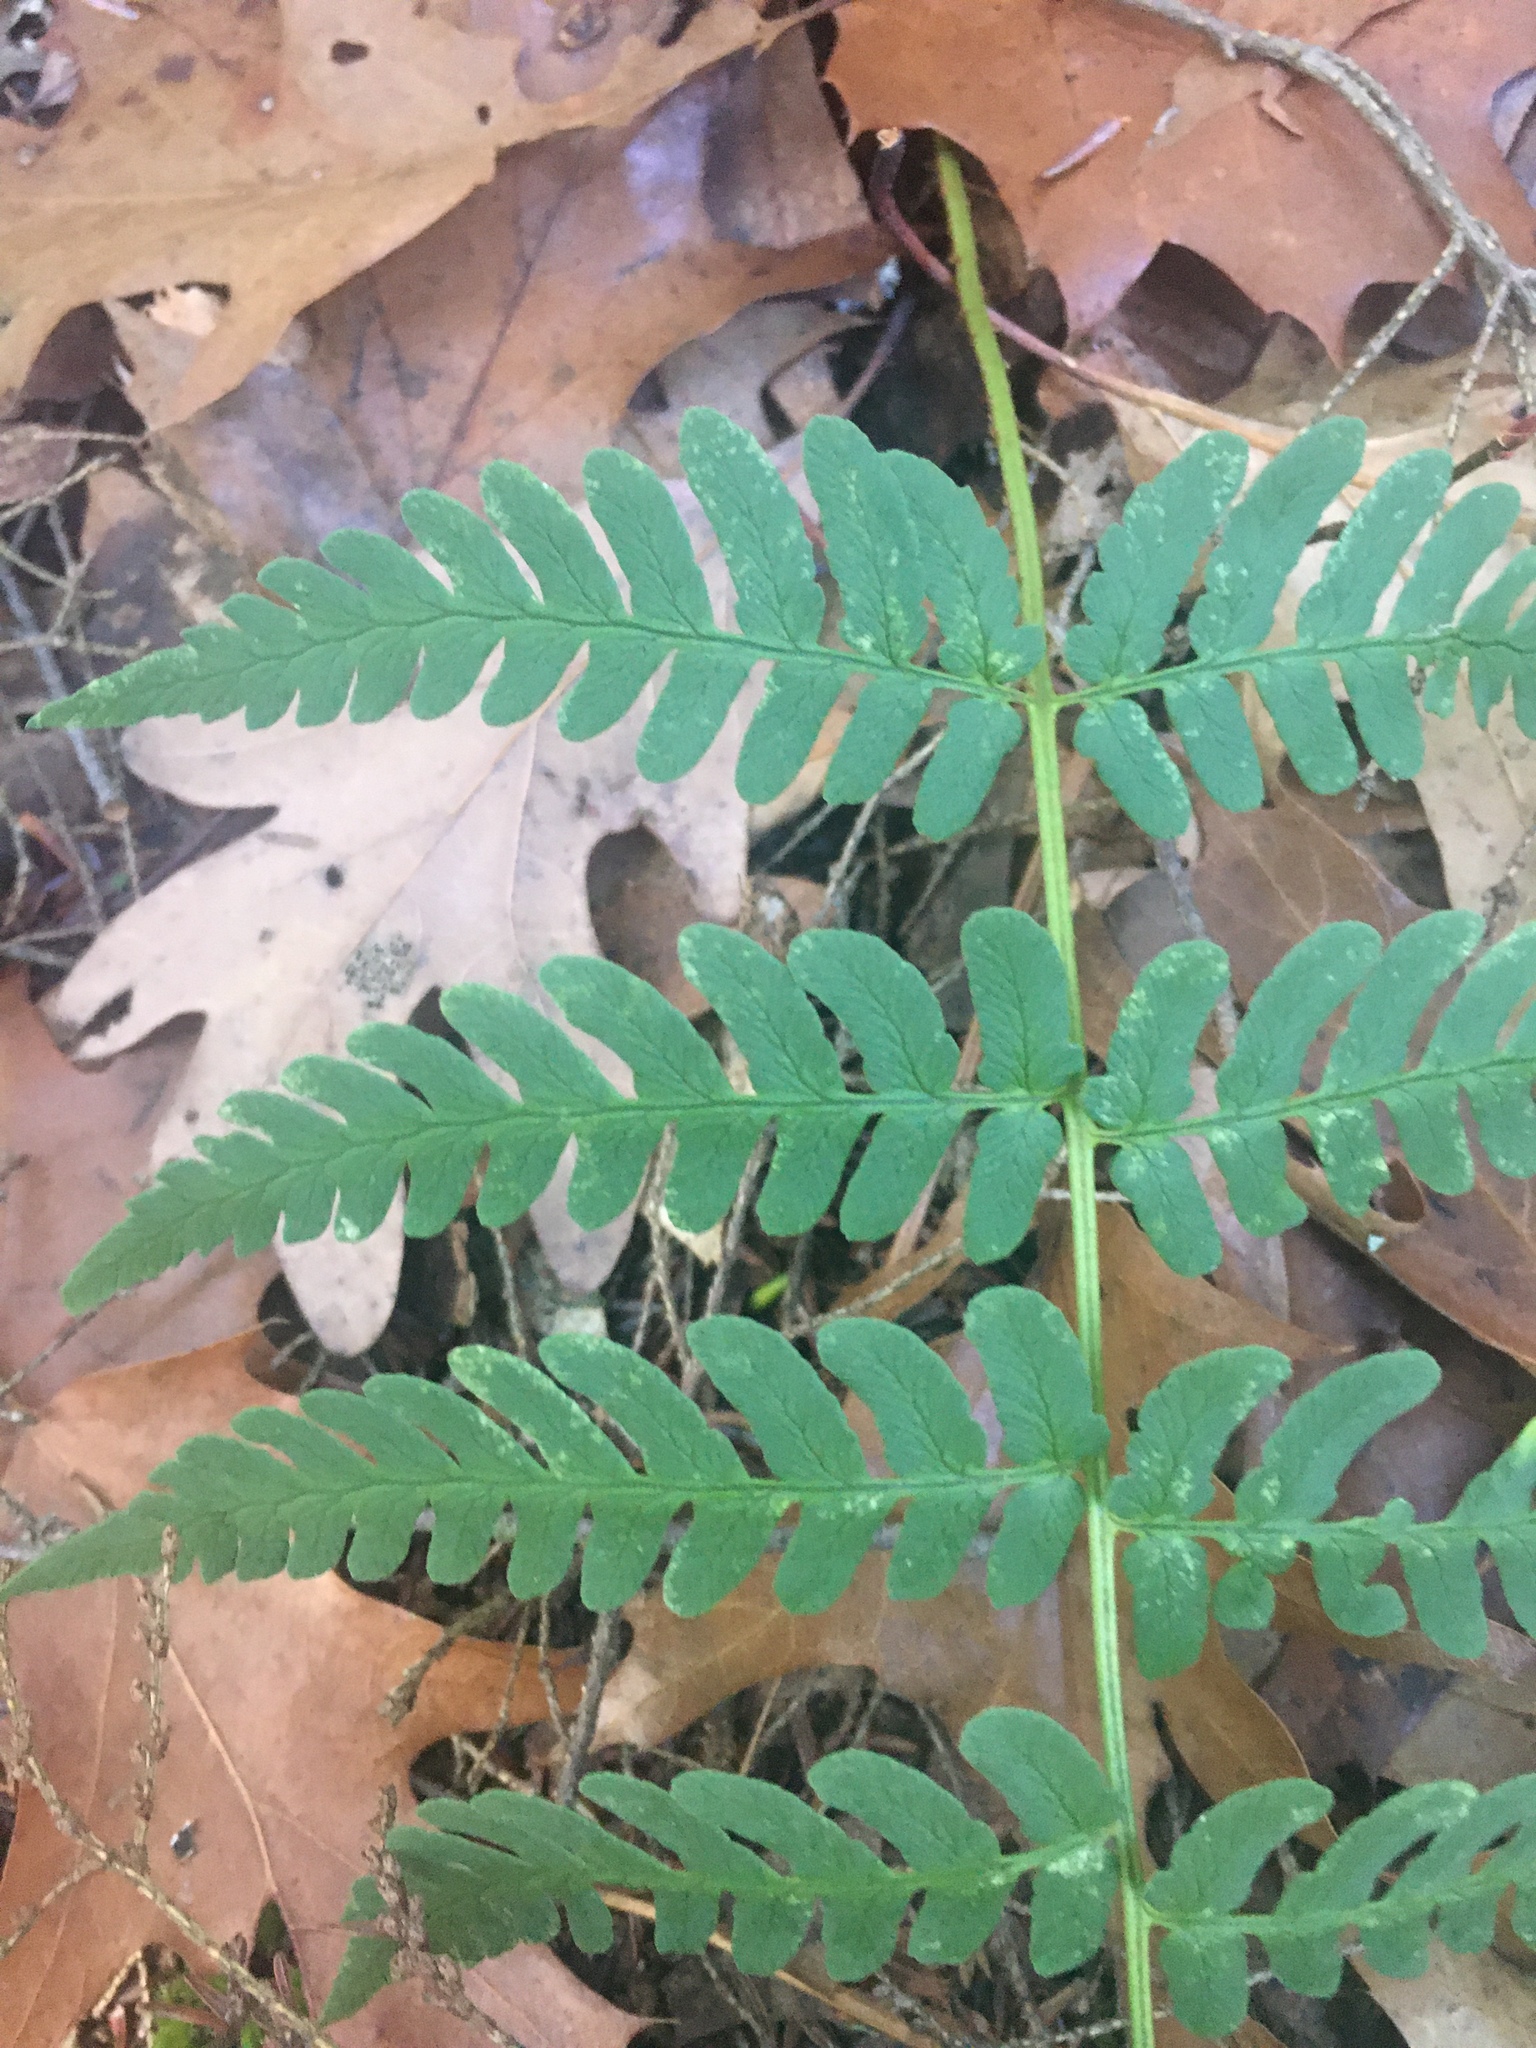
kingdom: Plantae
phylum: Tracheophyta
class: Polypodiopsida
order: Polypodiales
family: Dryopteridaceae
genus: Dryopteris
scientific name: Dryopteris marginalis
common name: Marginal wood fern
